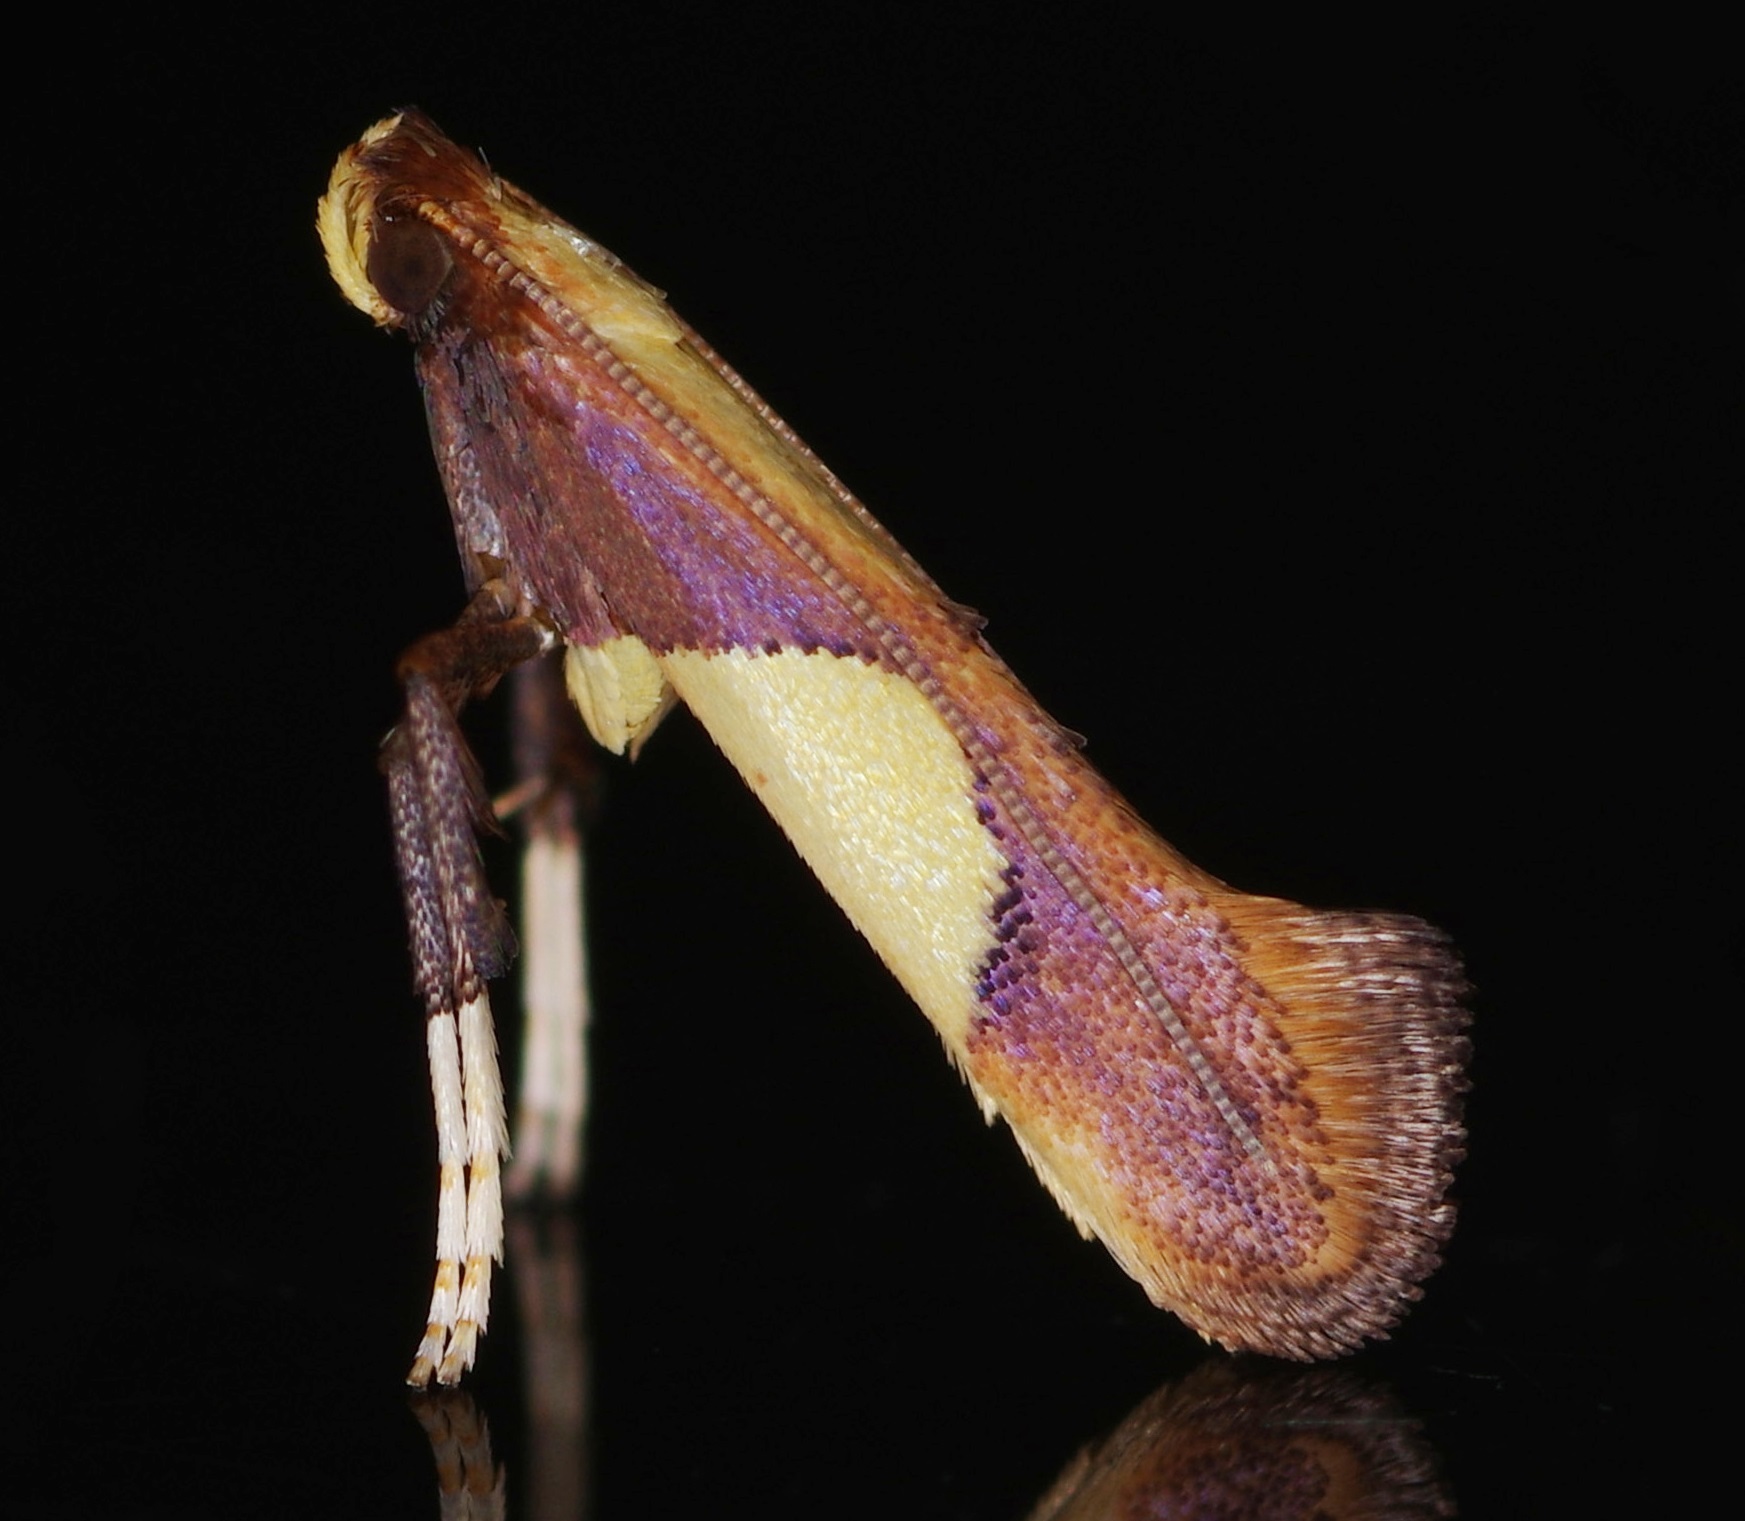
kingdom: Animalia
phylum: Arthropoda
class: Insecta
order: Lepidoptera
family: Gracillariidae
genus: Caloptilia
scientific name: Caloptilia cecidophora
